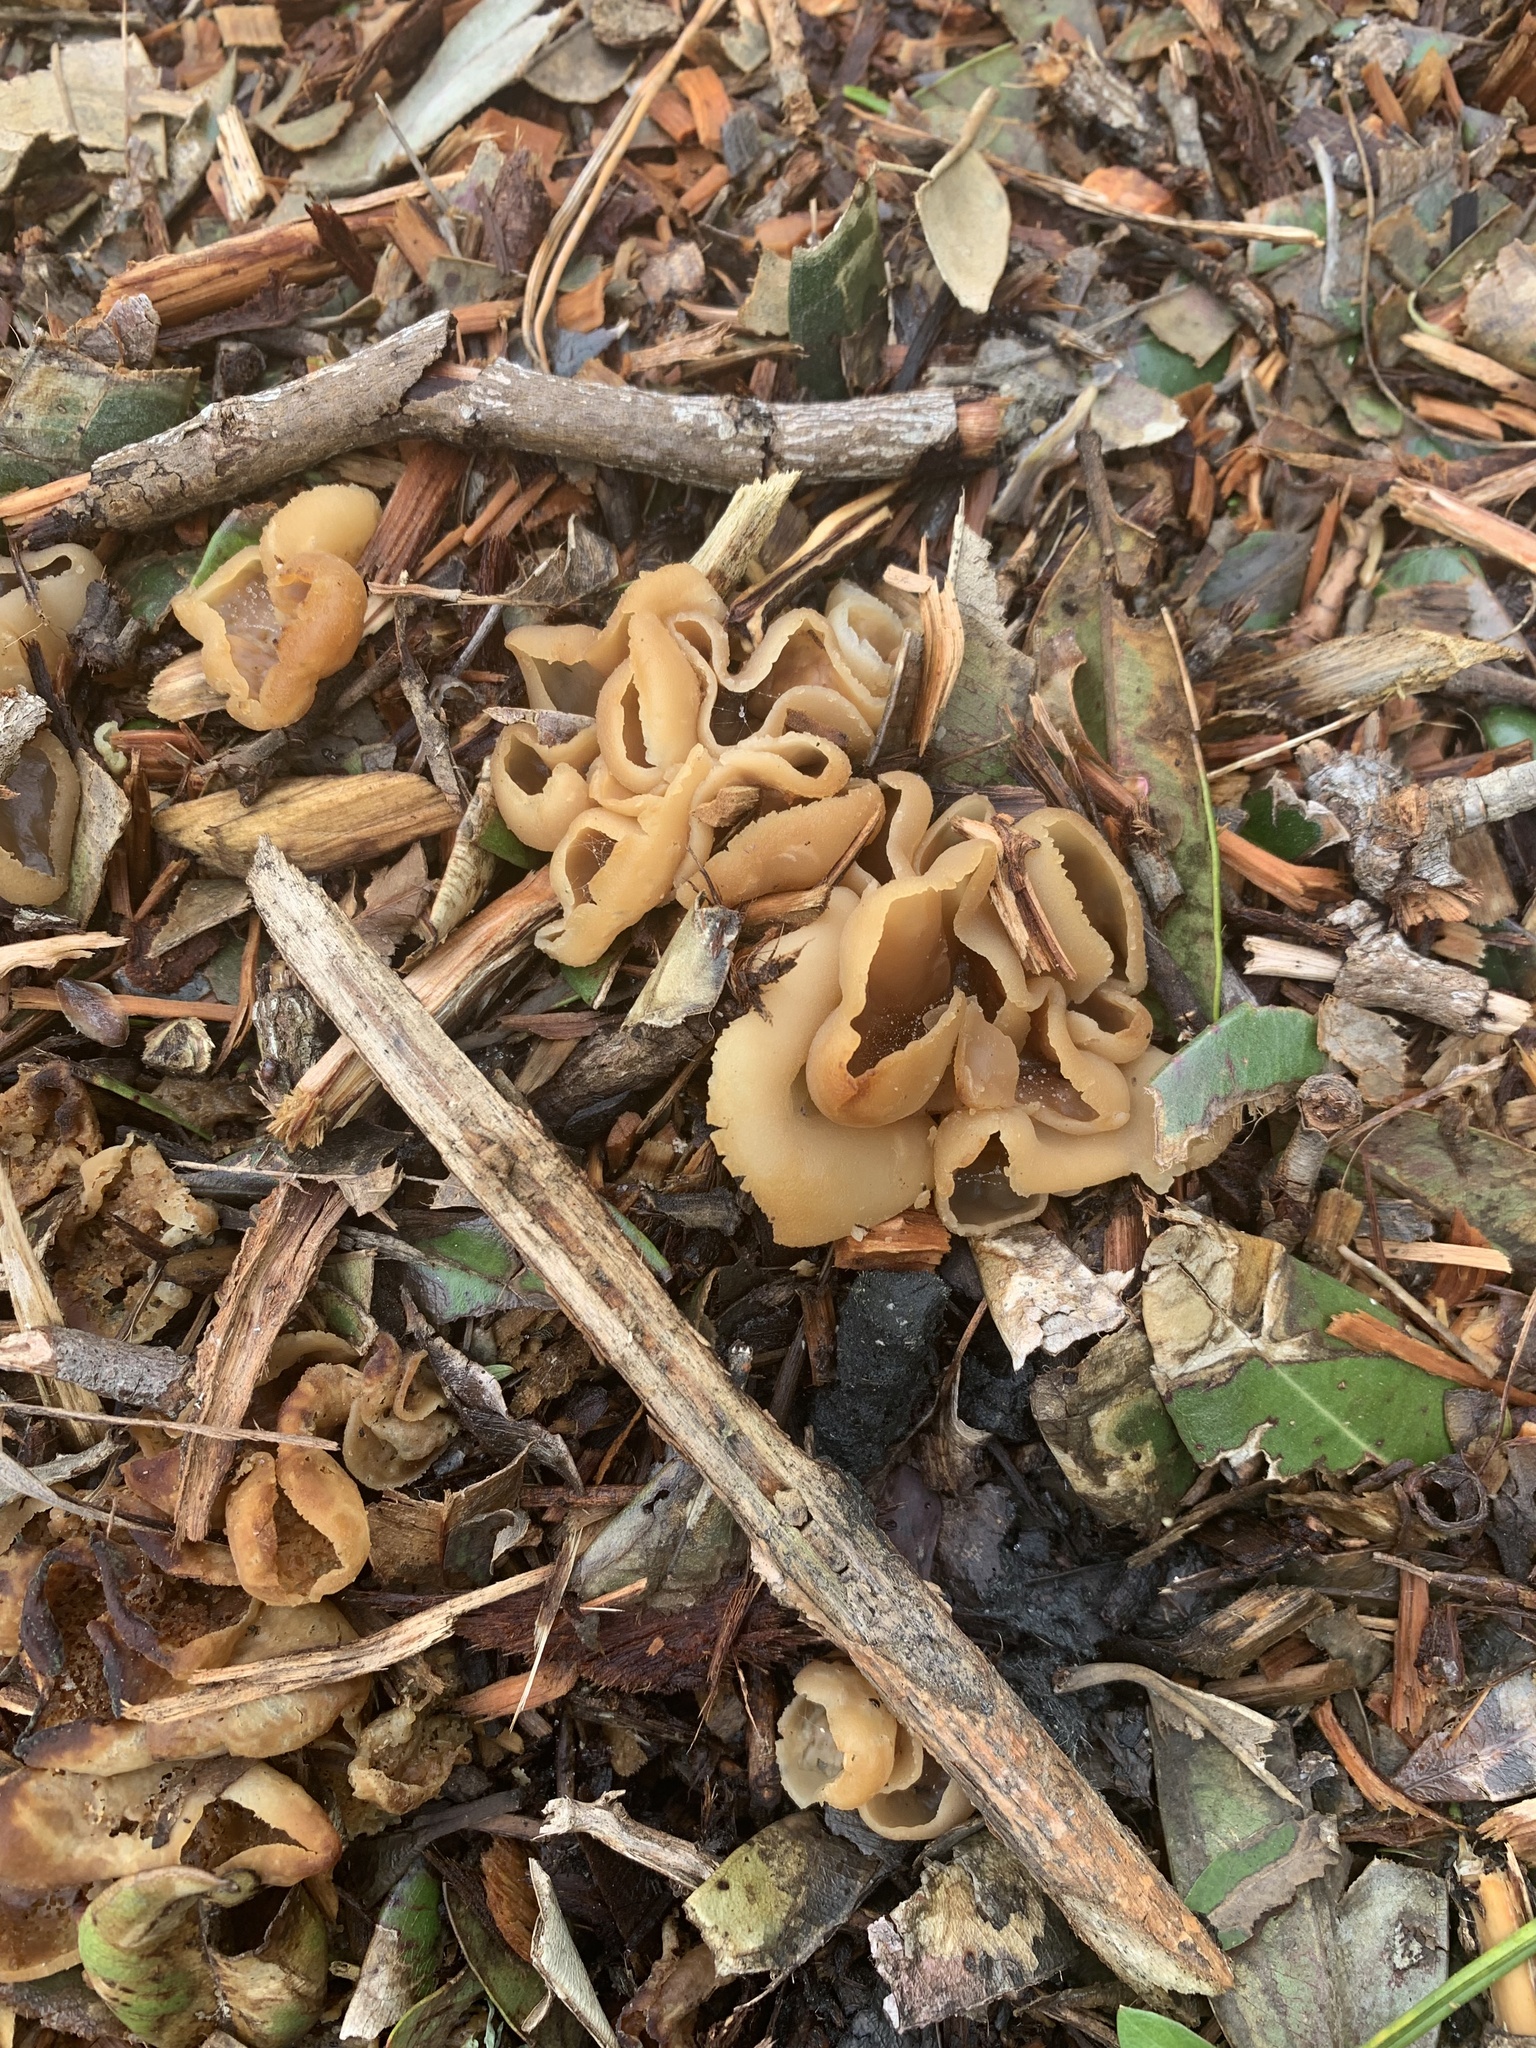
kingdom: Fungi
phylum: Ascomycota
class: Pezizomycetes
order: Pezizales
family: Pezizaceae
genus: Peziza
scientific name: Peziza varia
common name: Layered cup
